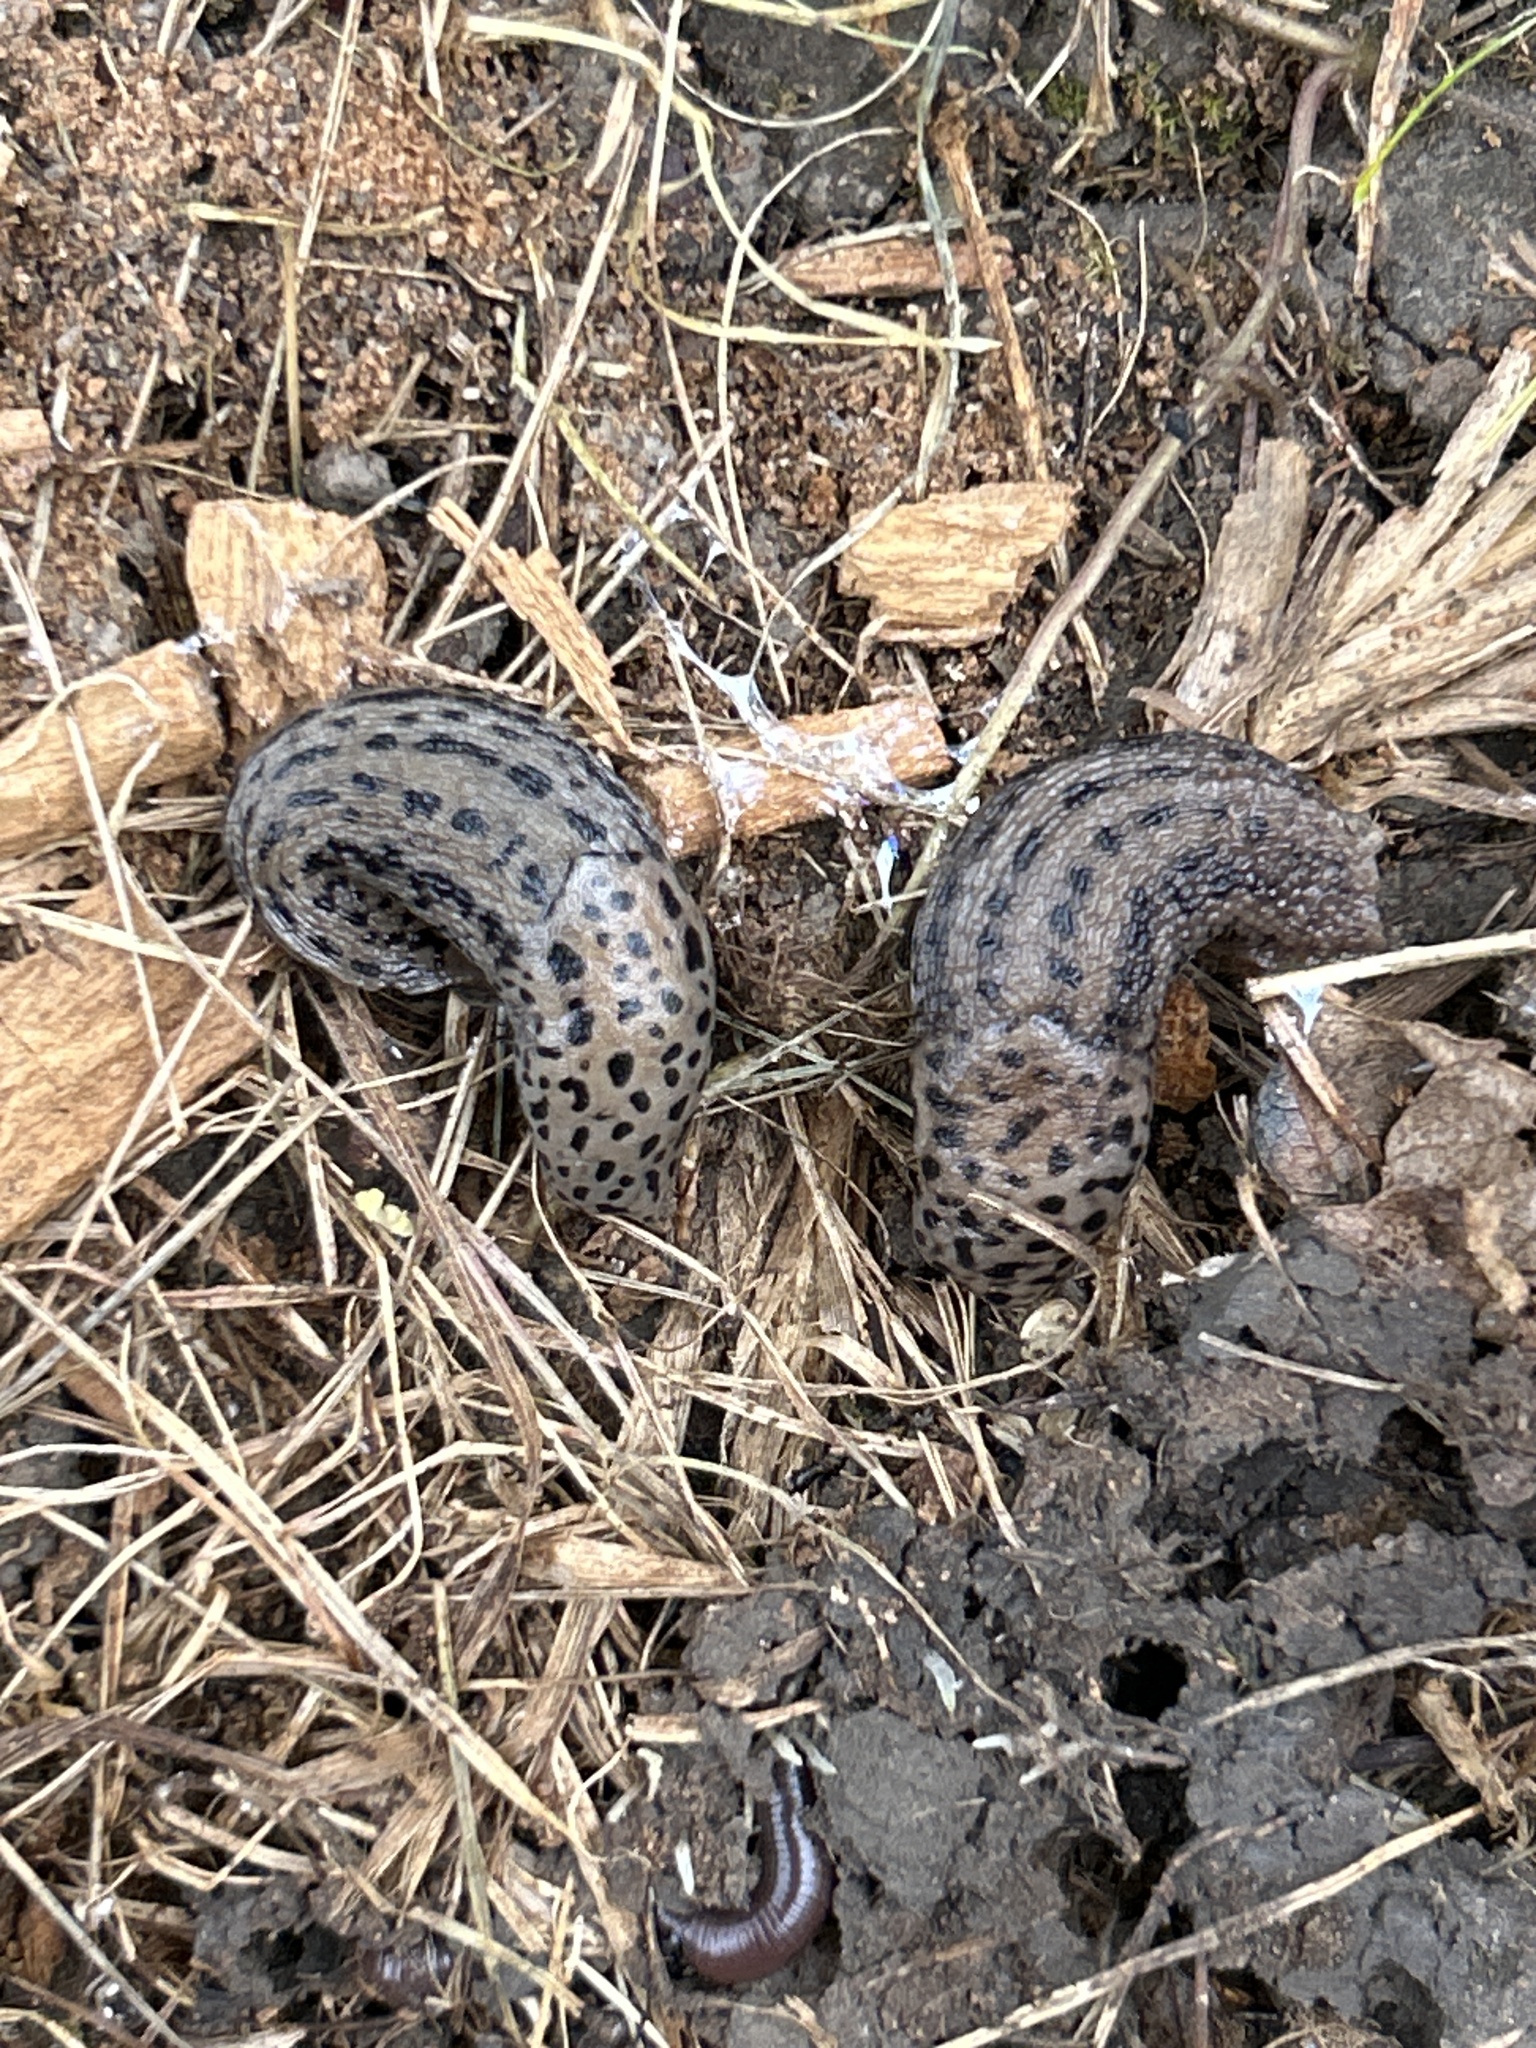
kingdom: Animalia
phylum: Mollusca
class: Gastropoda
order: Stylommatophora
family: Limacidae
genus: Limax
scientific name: Limax maximus
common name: Great grey slug
